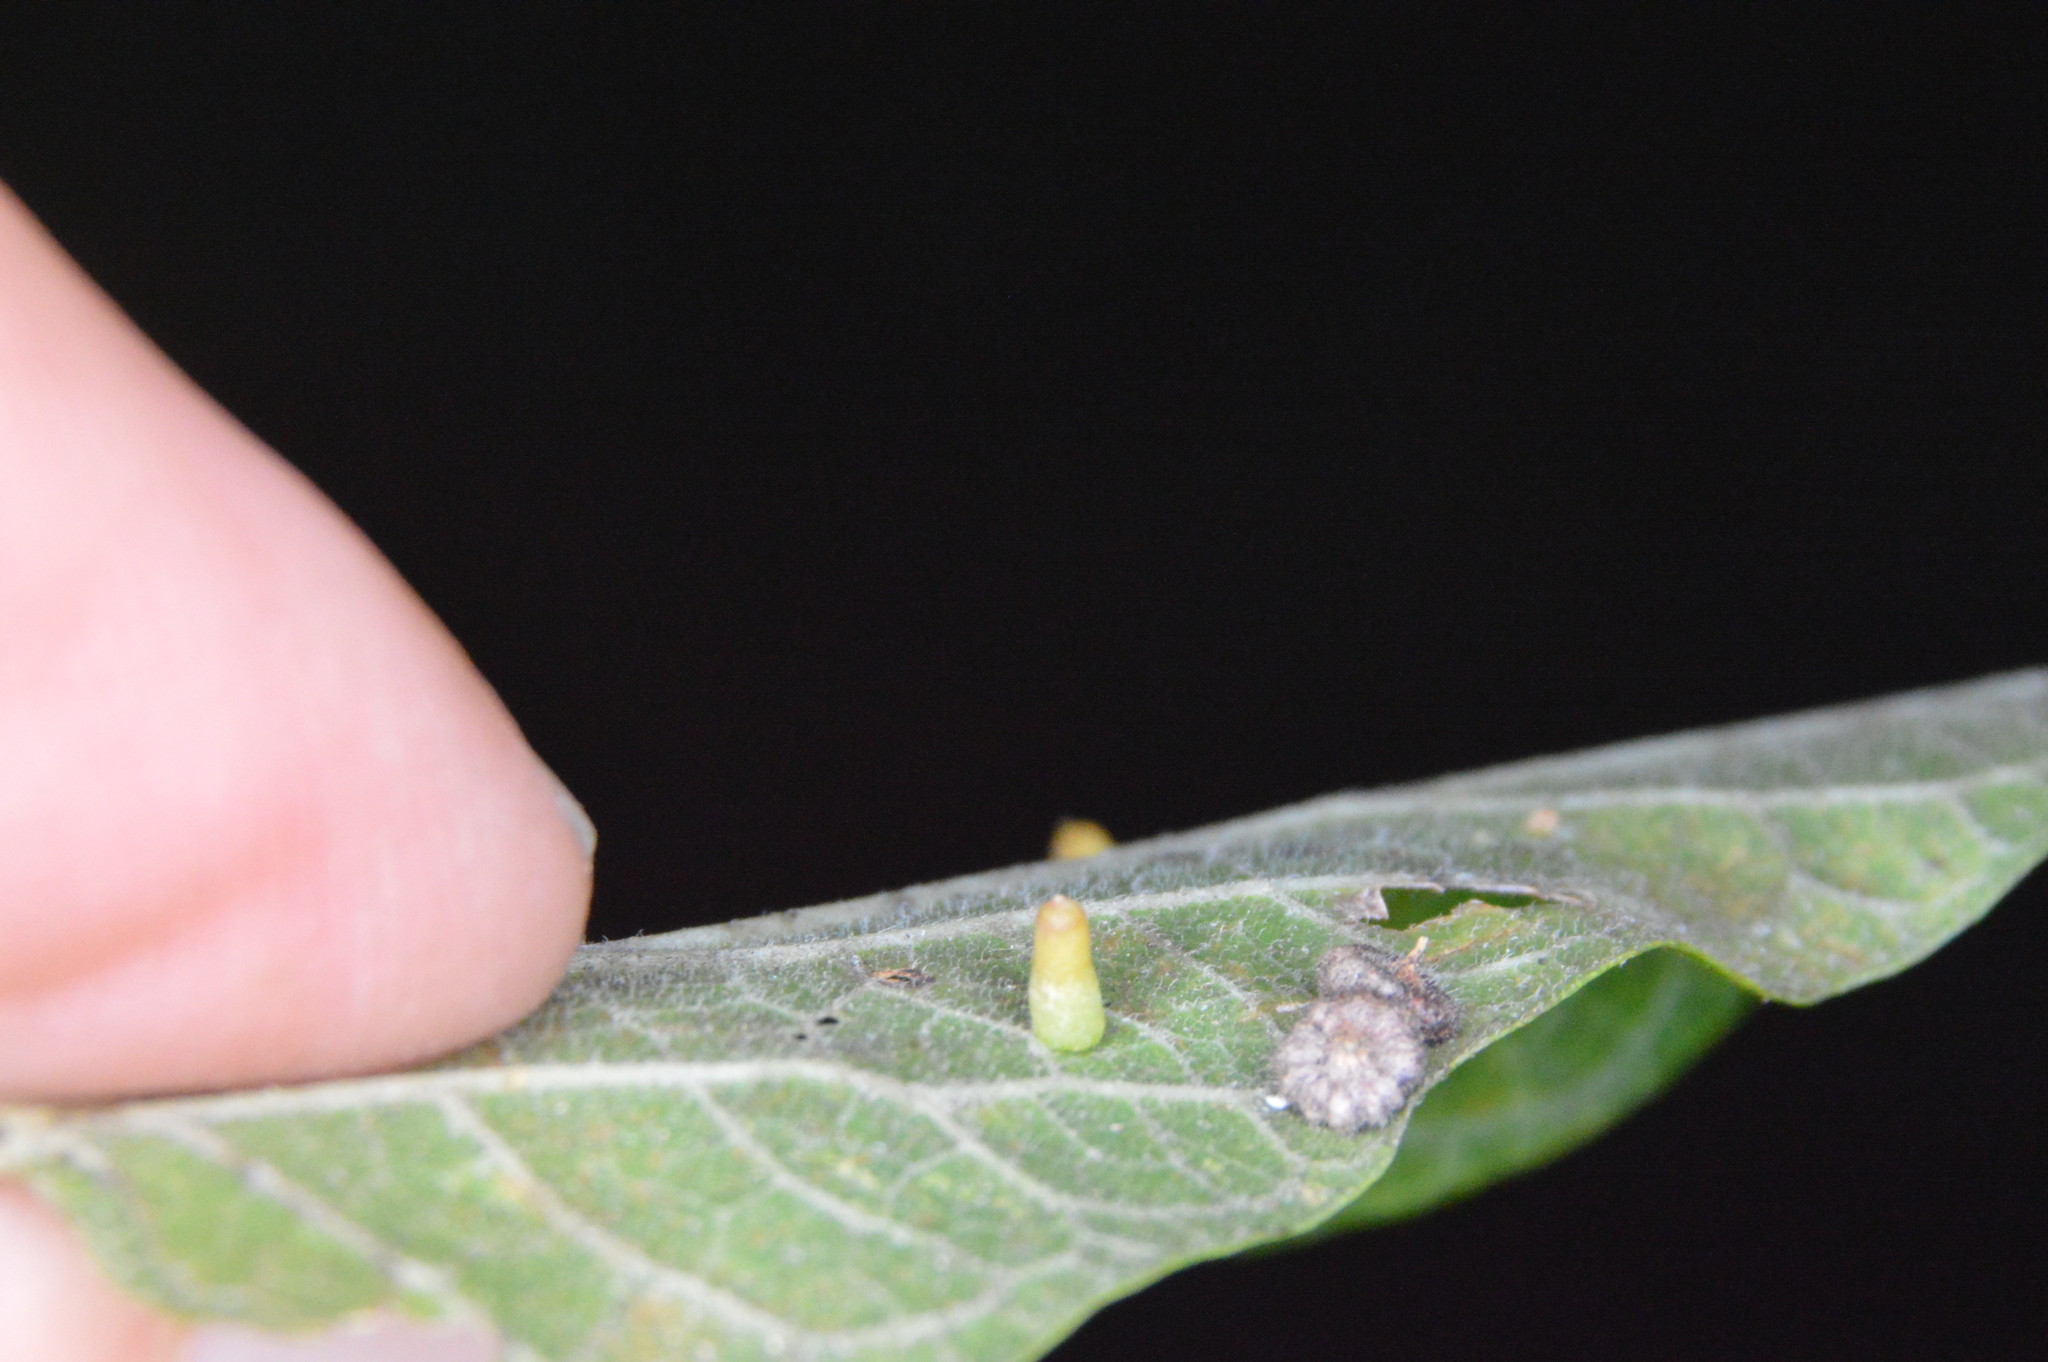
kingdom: Animalia
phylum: Arthropoda
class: Insecta
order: Diptera
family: Cecidomyiidae
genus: Celticecis
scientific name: Celticecis aciculata
